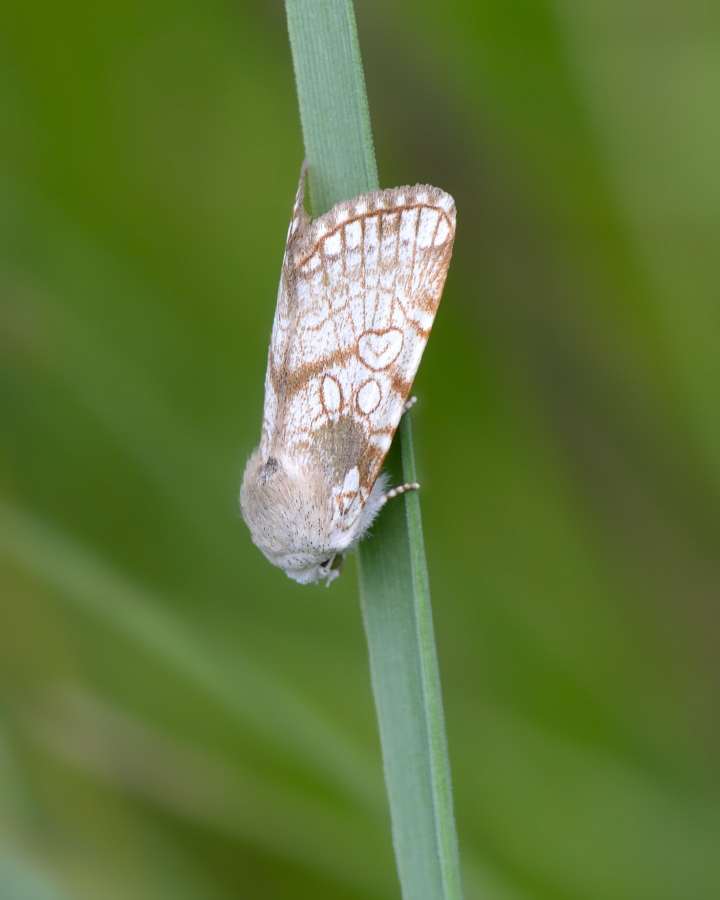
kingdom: Animalia
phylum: Arthropoda
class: Insecta
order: Lepidoptera
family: Noctuidae
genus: Dicycla
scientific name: Dicycla oo
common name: Heart moth
